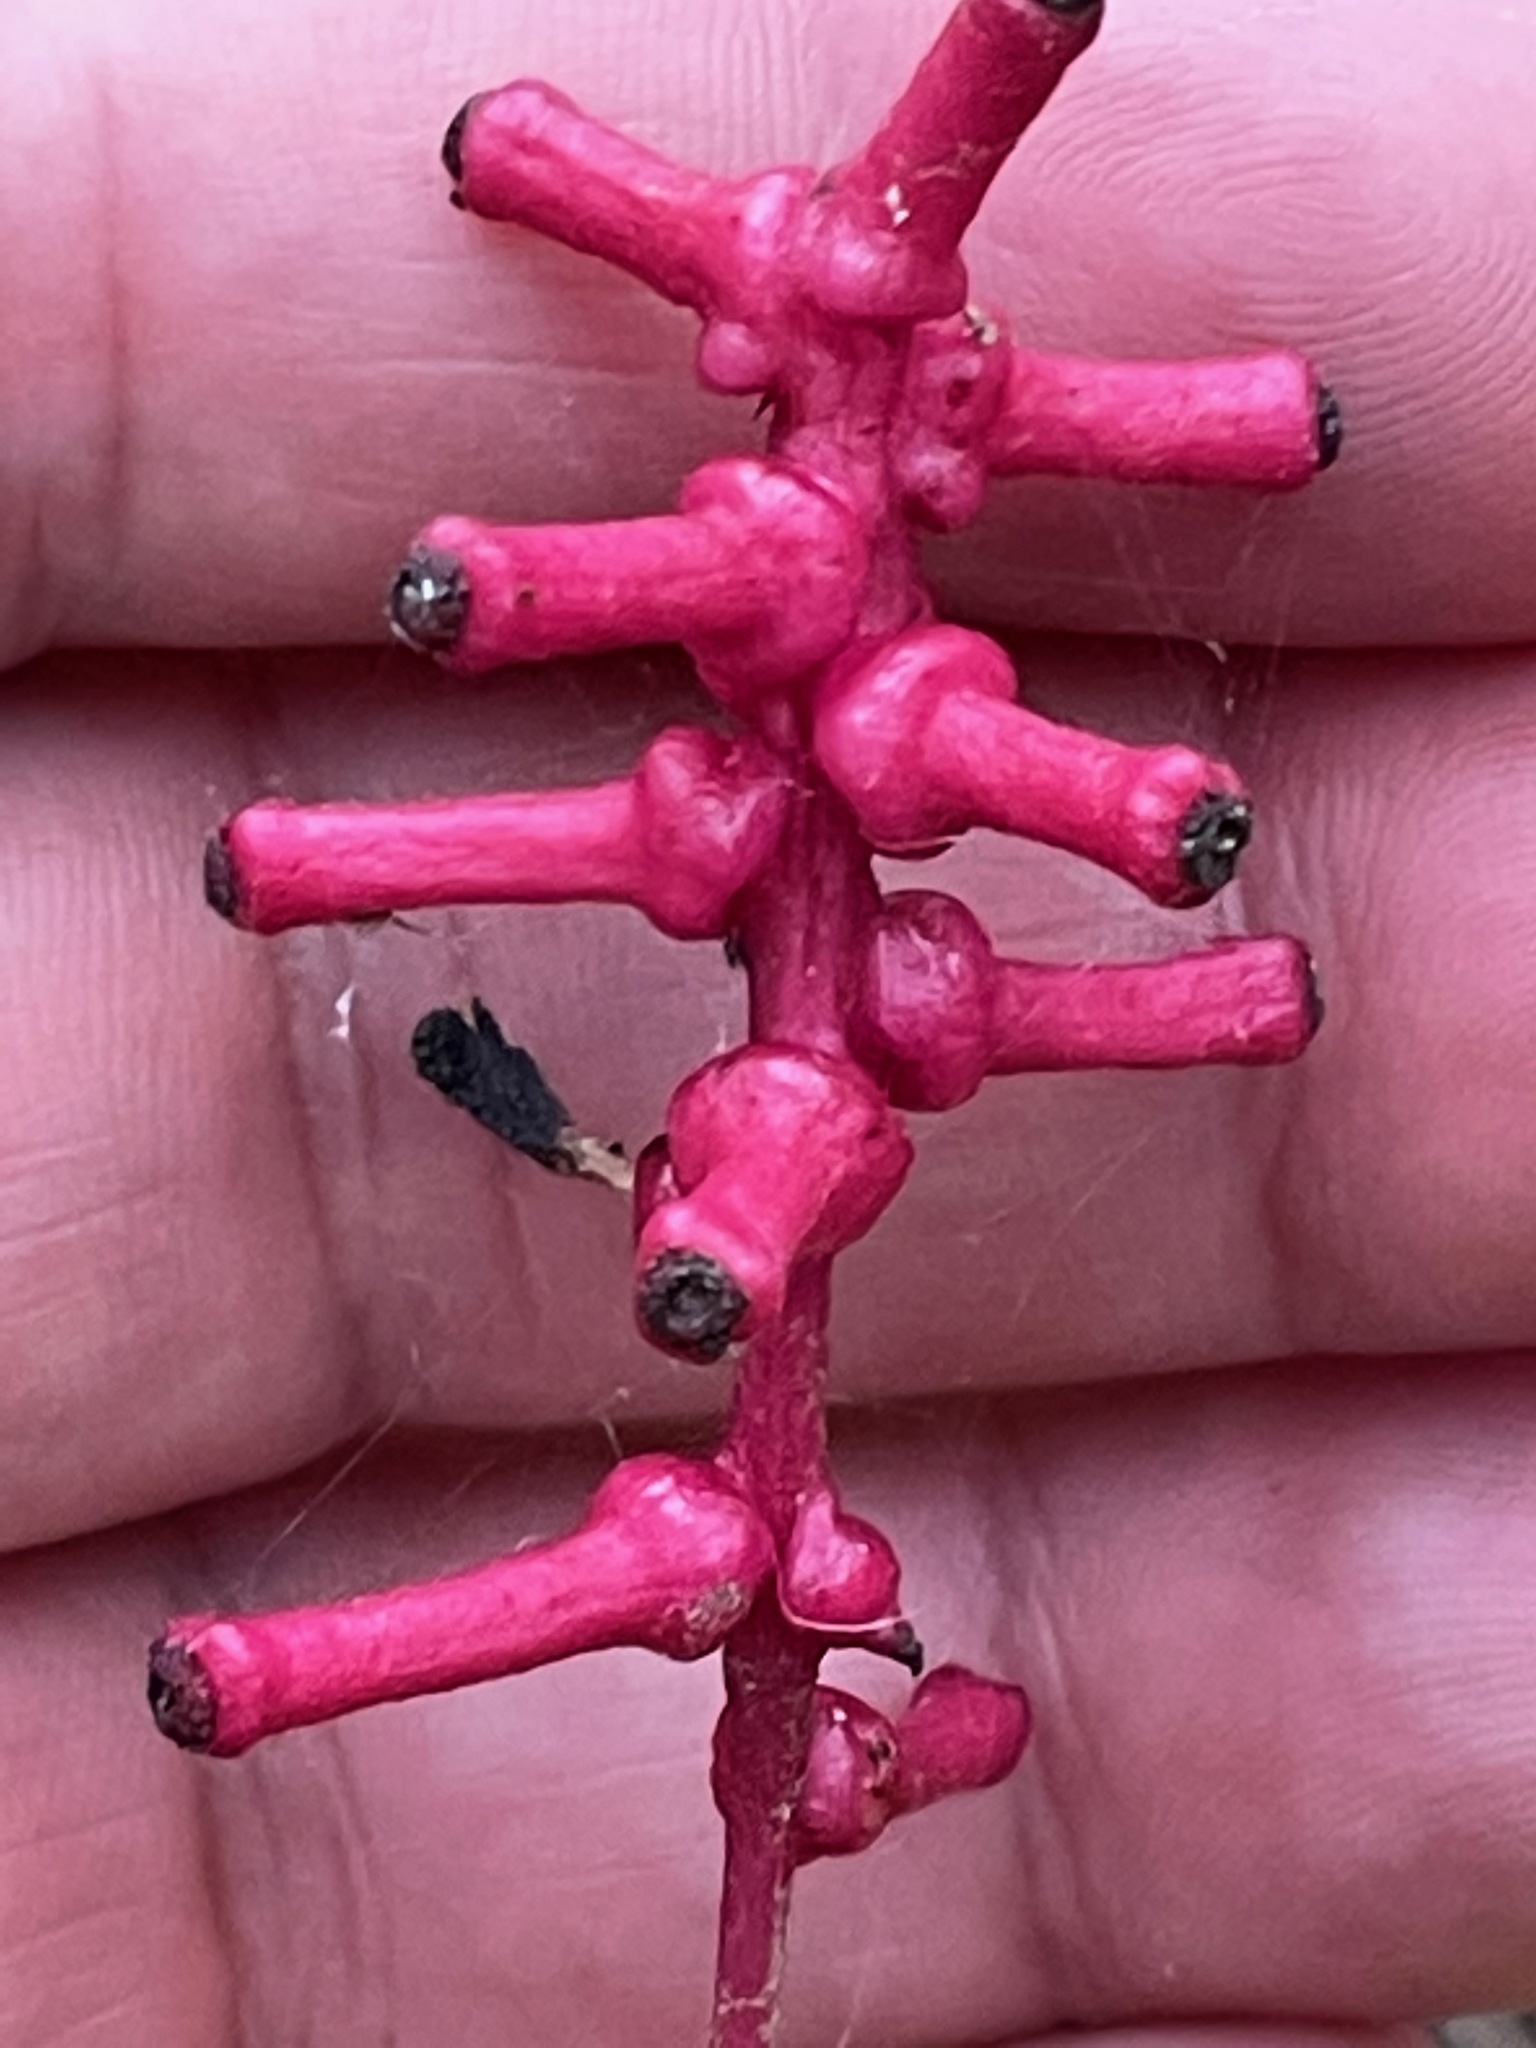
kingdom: Plantae
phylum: Tracheophyta
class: Magnoliopsida
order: Ranunculales
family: Ranunculaceae
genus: Actaea
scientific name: Actaea pachypoda
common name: Doll's-eyes
